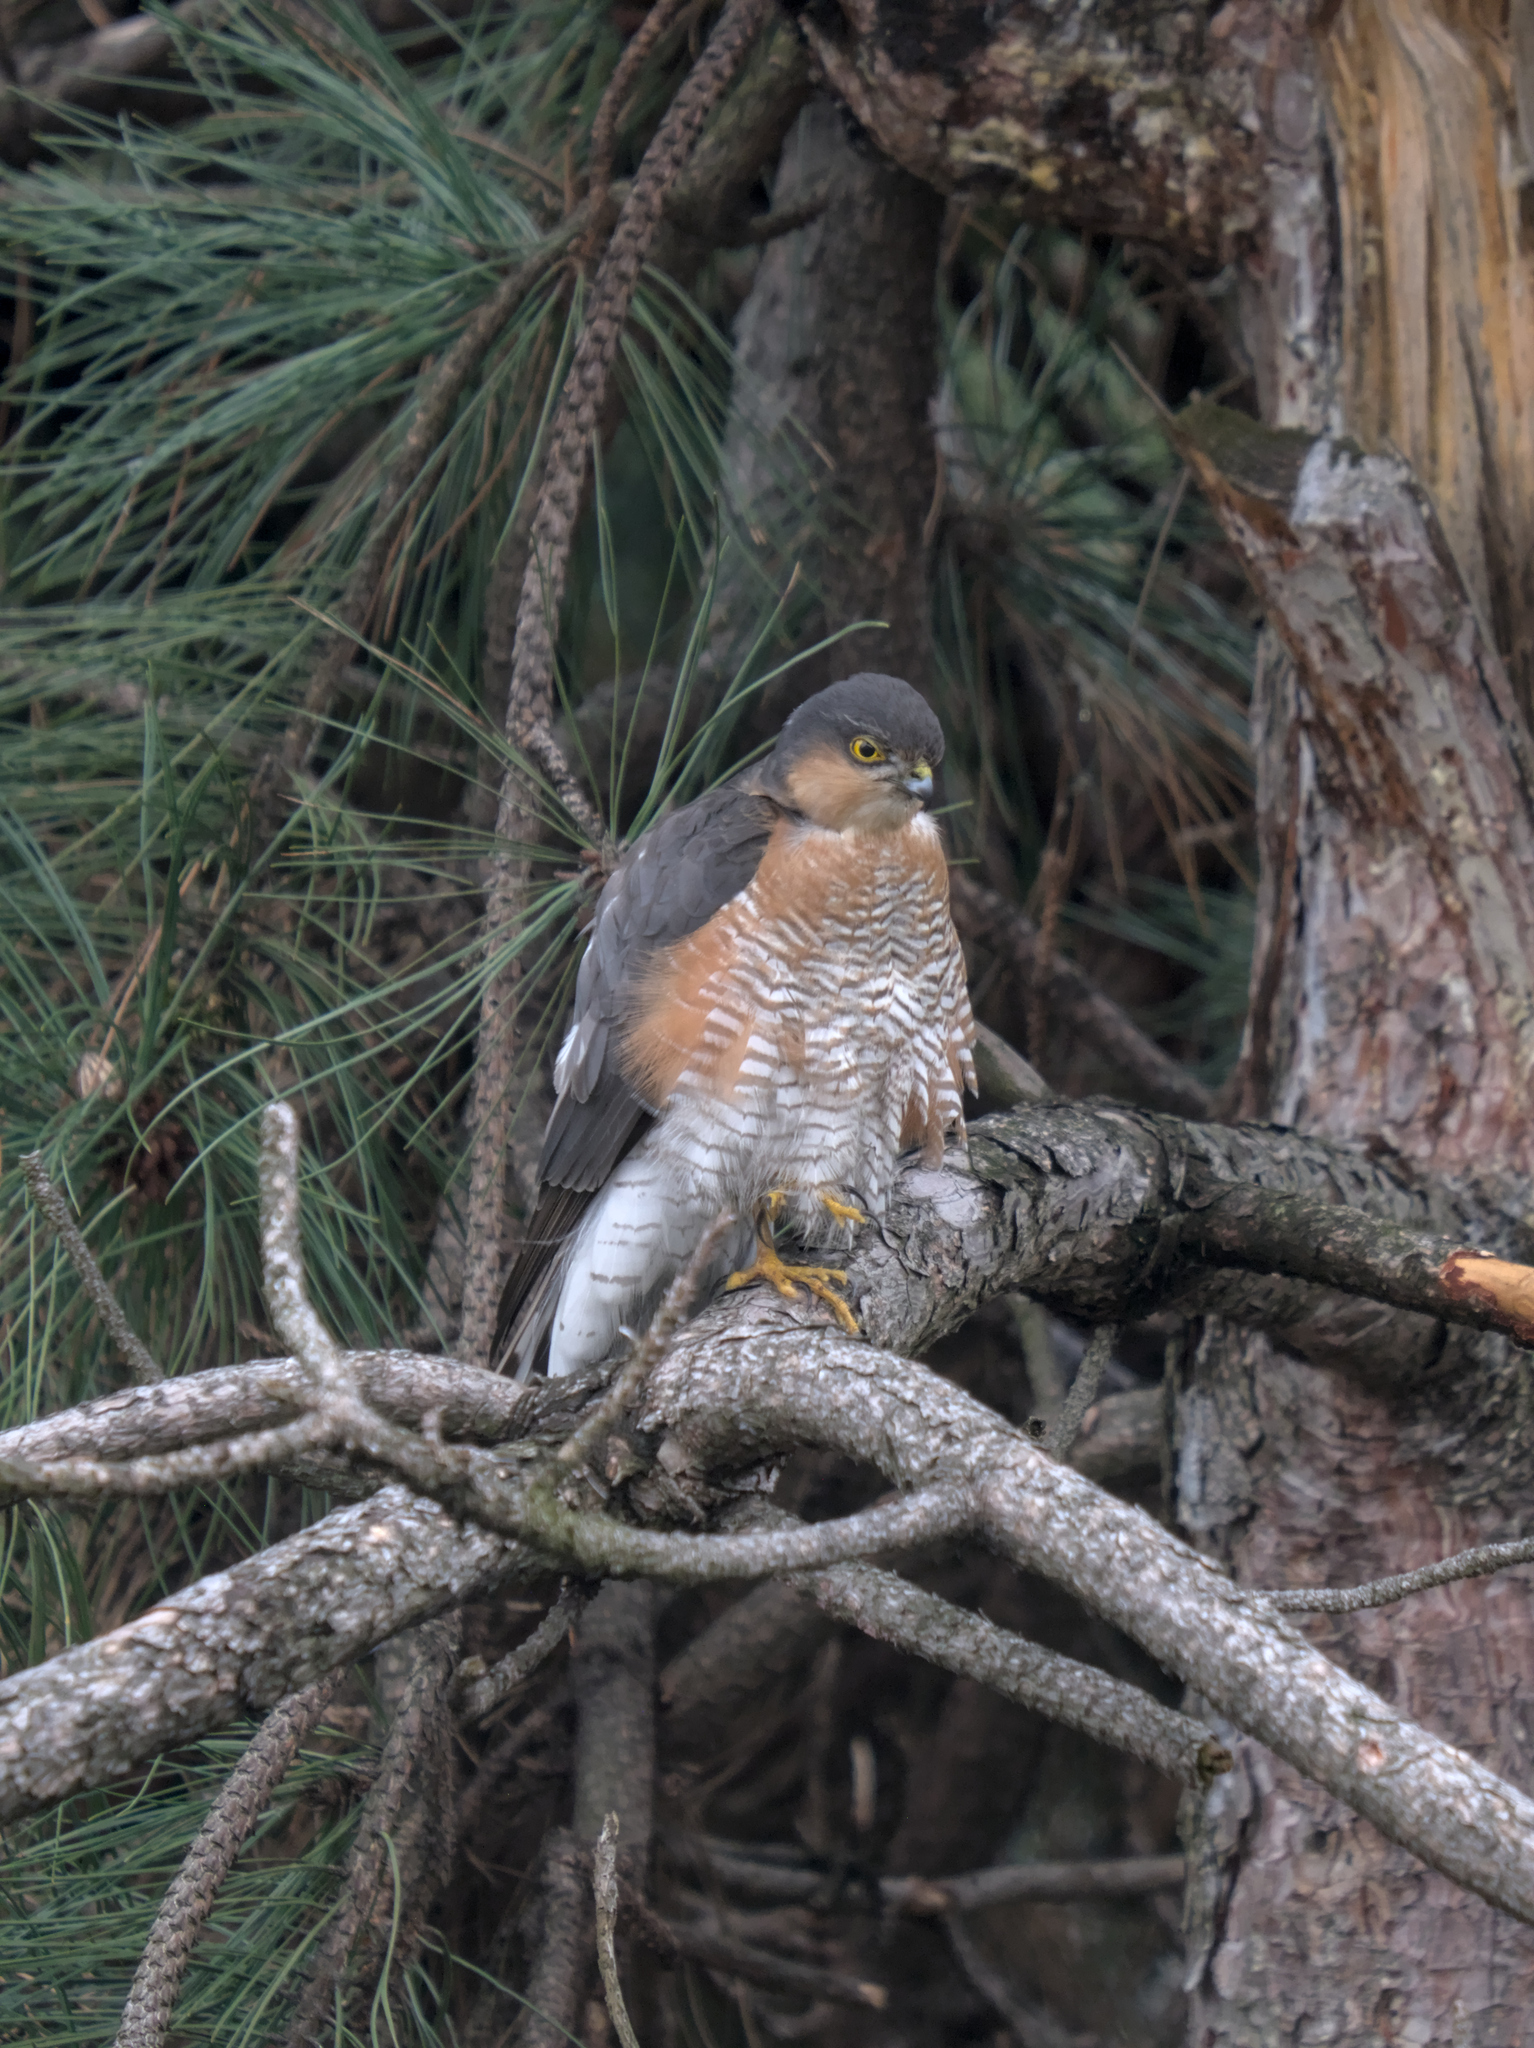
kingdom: Animalia
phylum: Chordata
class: Aves
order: Accipitriformes
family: Accipitridae
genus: Accipiter
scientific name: Accipiter nisus
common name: Eurasian sparrowhawk
